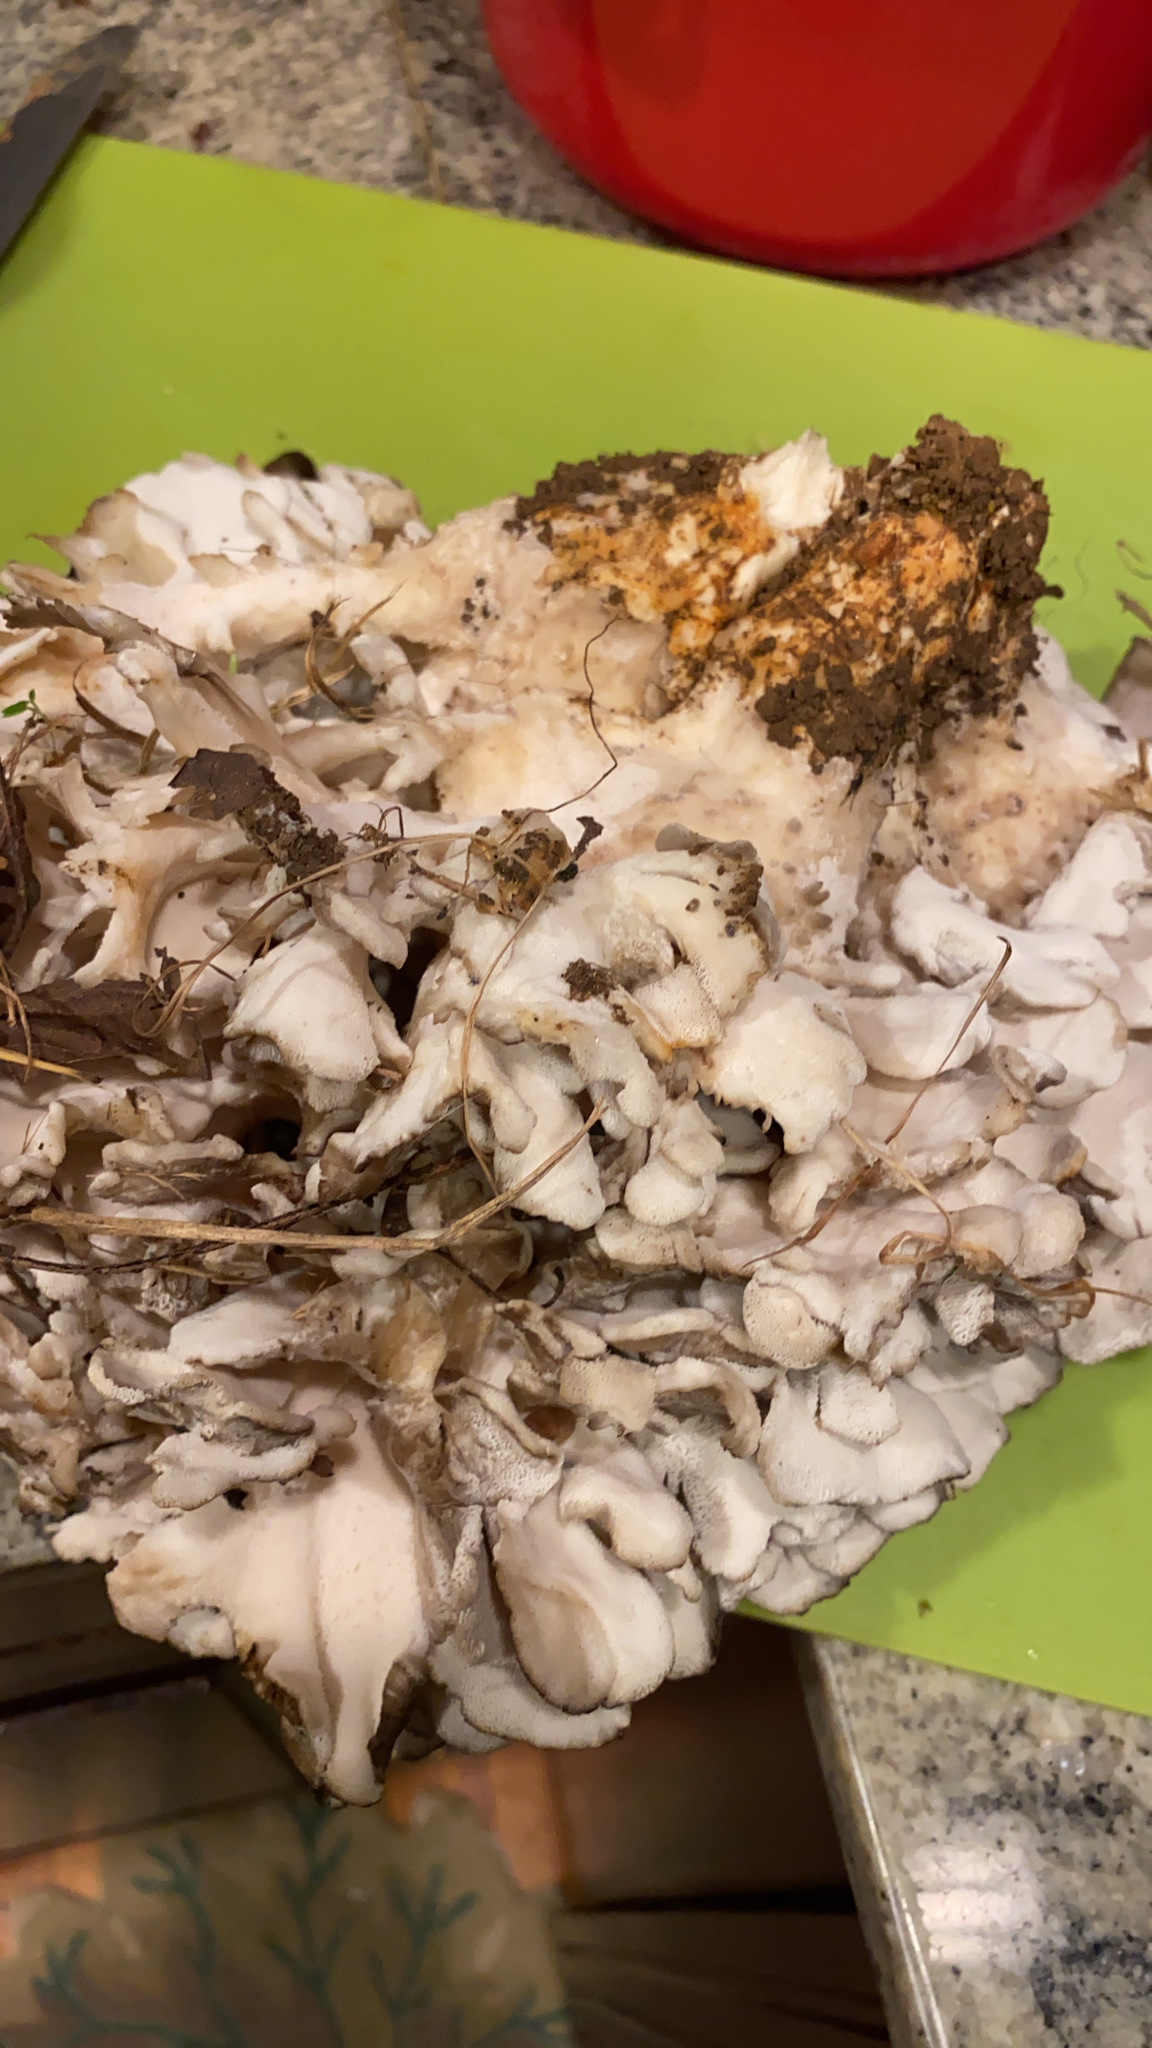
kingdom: Fungi
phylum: Basidiomycota
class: Agaricomycetes
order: Polyporales
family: Grifolaceae
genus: Grifola
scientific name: Grifola frondosa
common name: Hen of the woods
